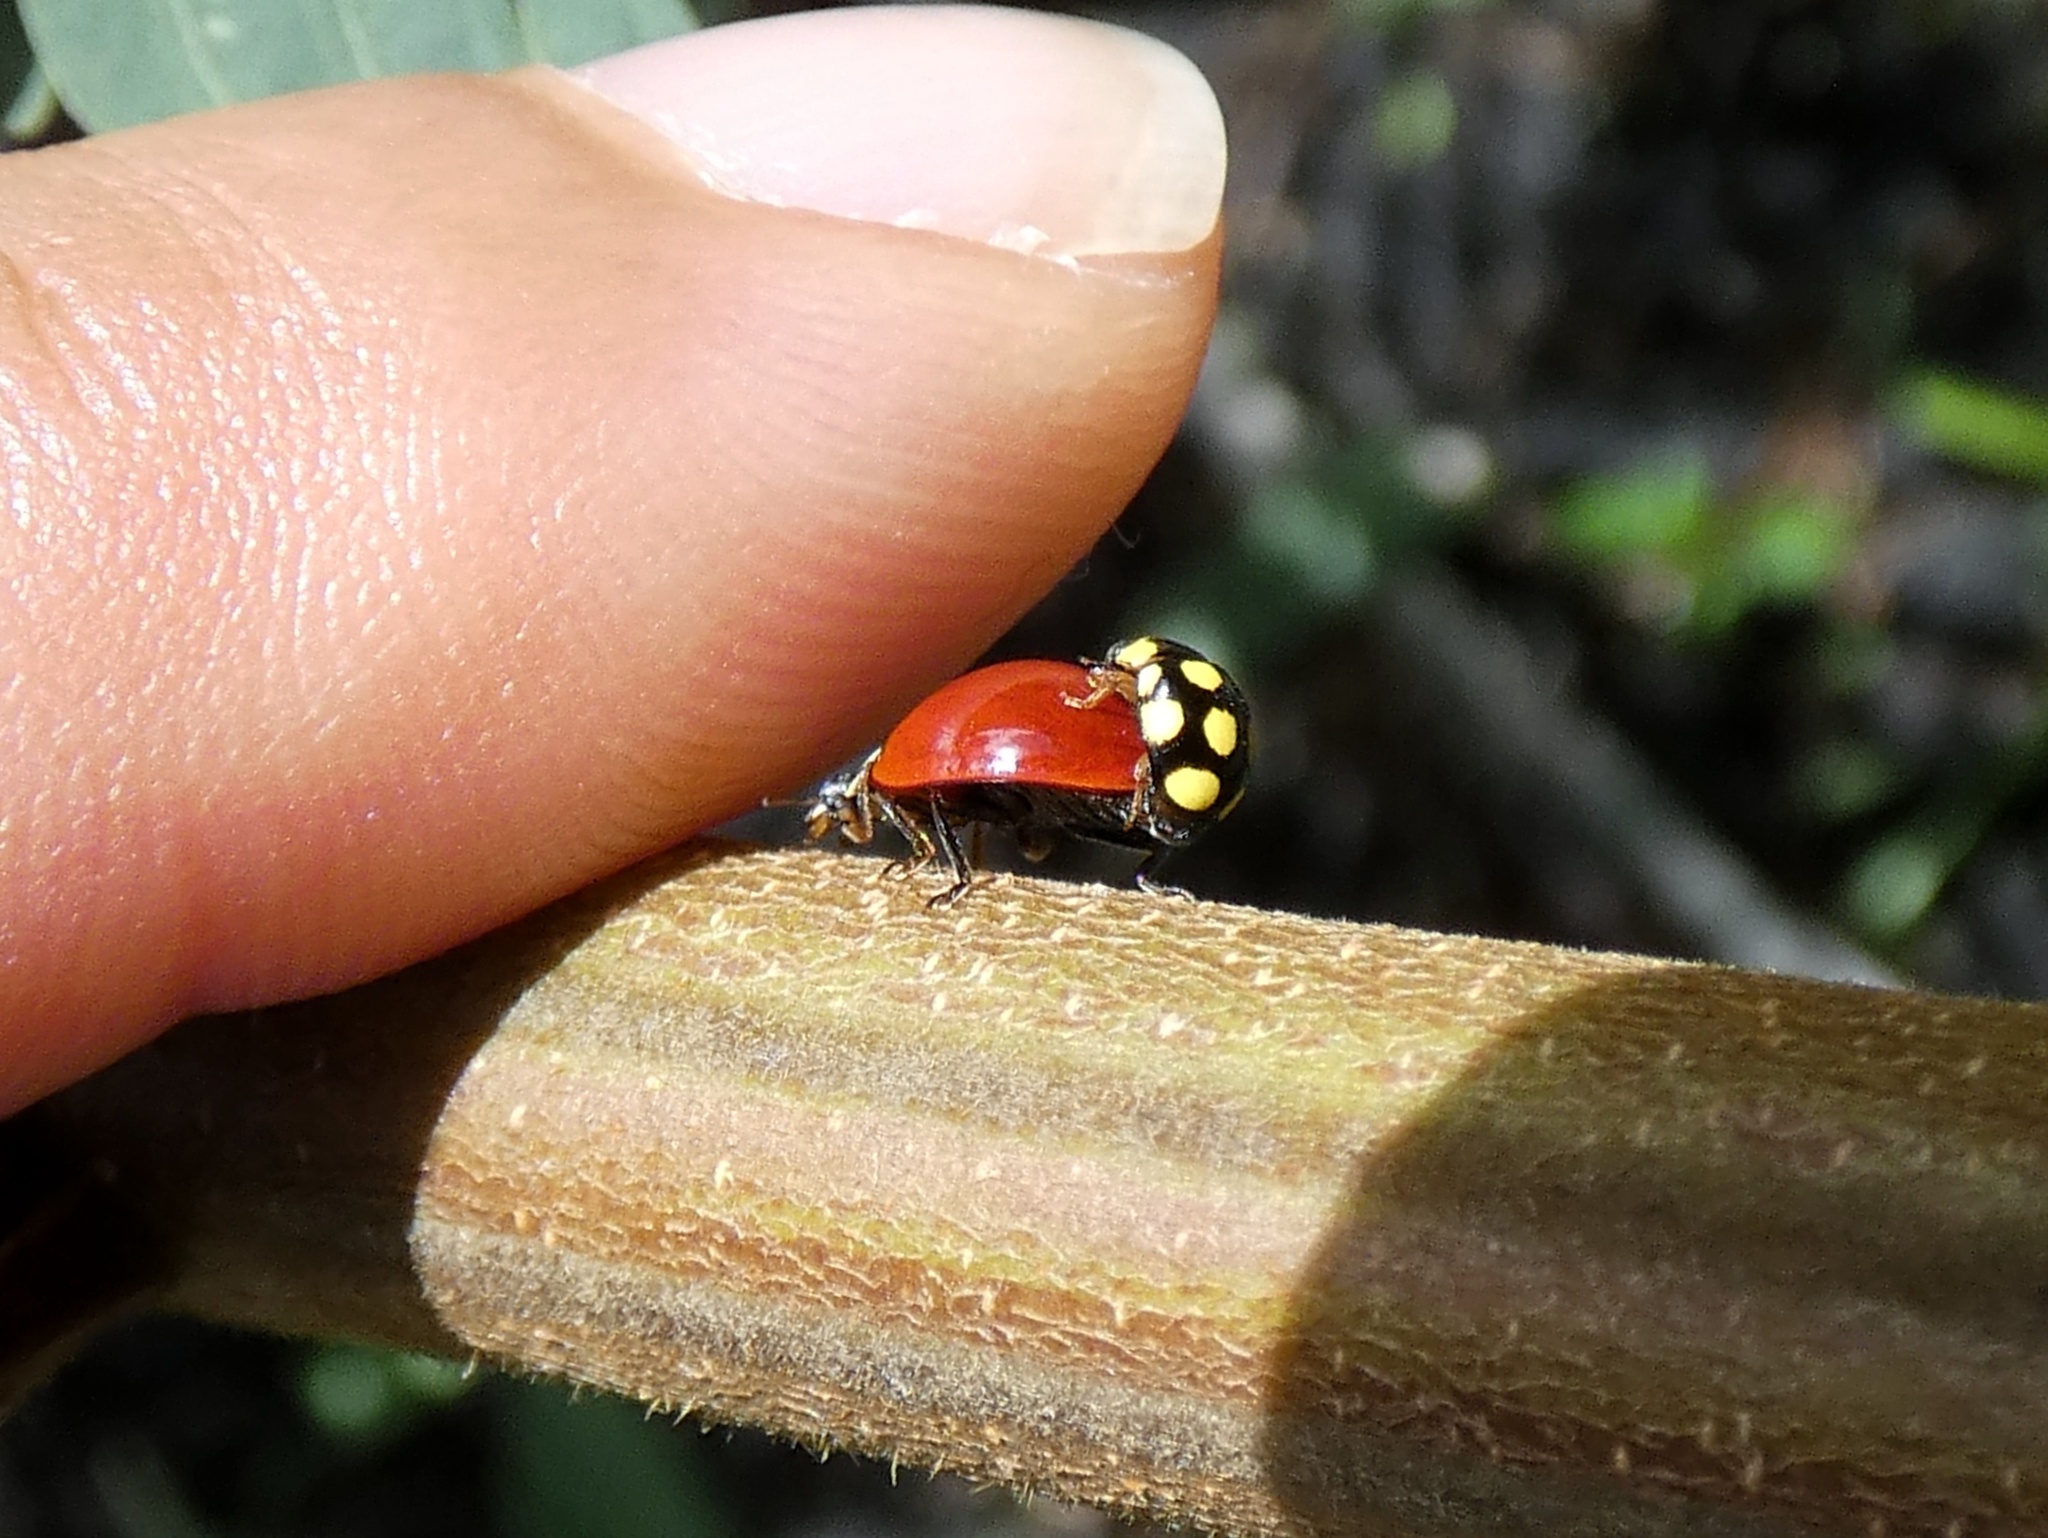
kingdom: Animalia
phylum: Arthropoda
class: Insecta
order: Coleoptera
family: Coccinellidae
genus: Cycloneda
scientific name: Cycloneda sanguinea
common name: Ladybird beetle
